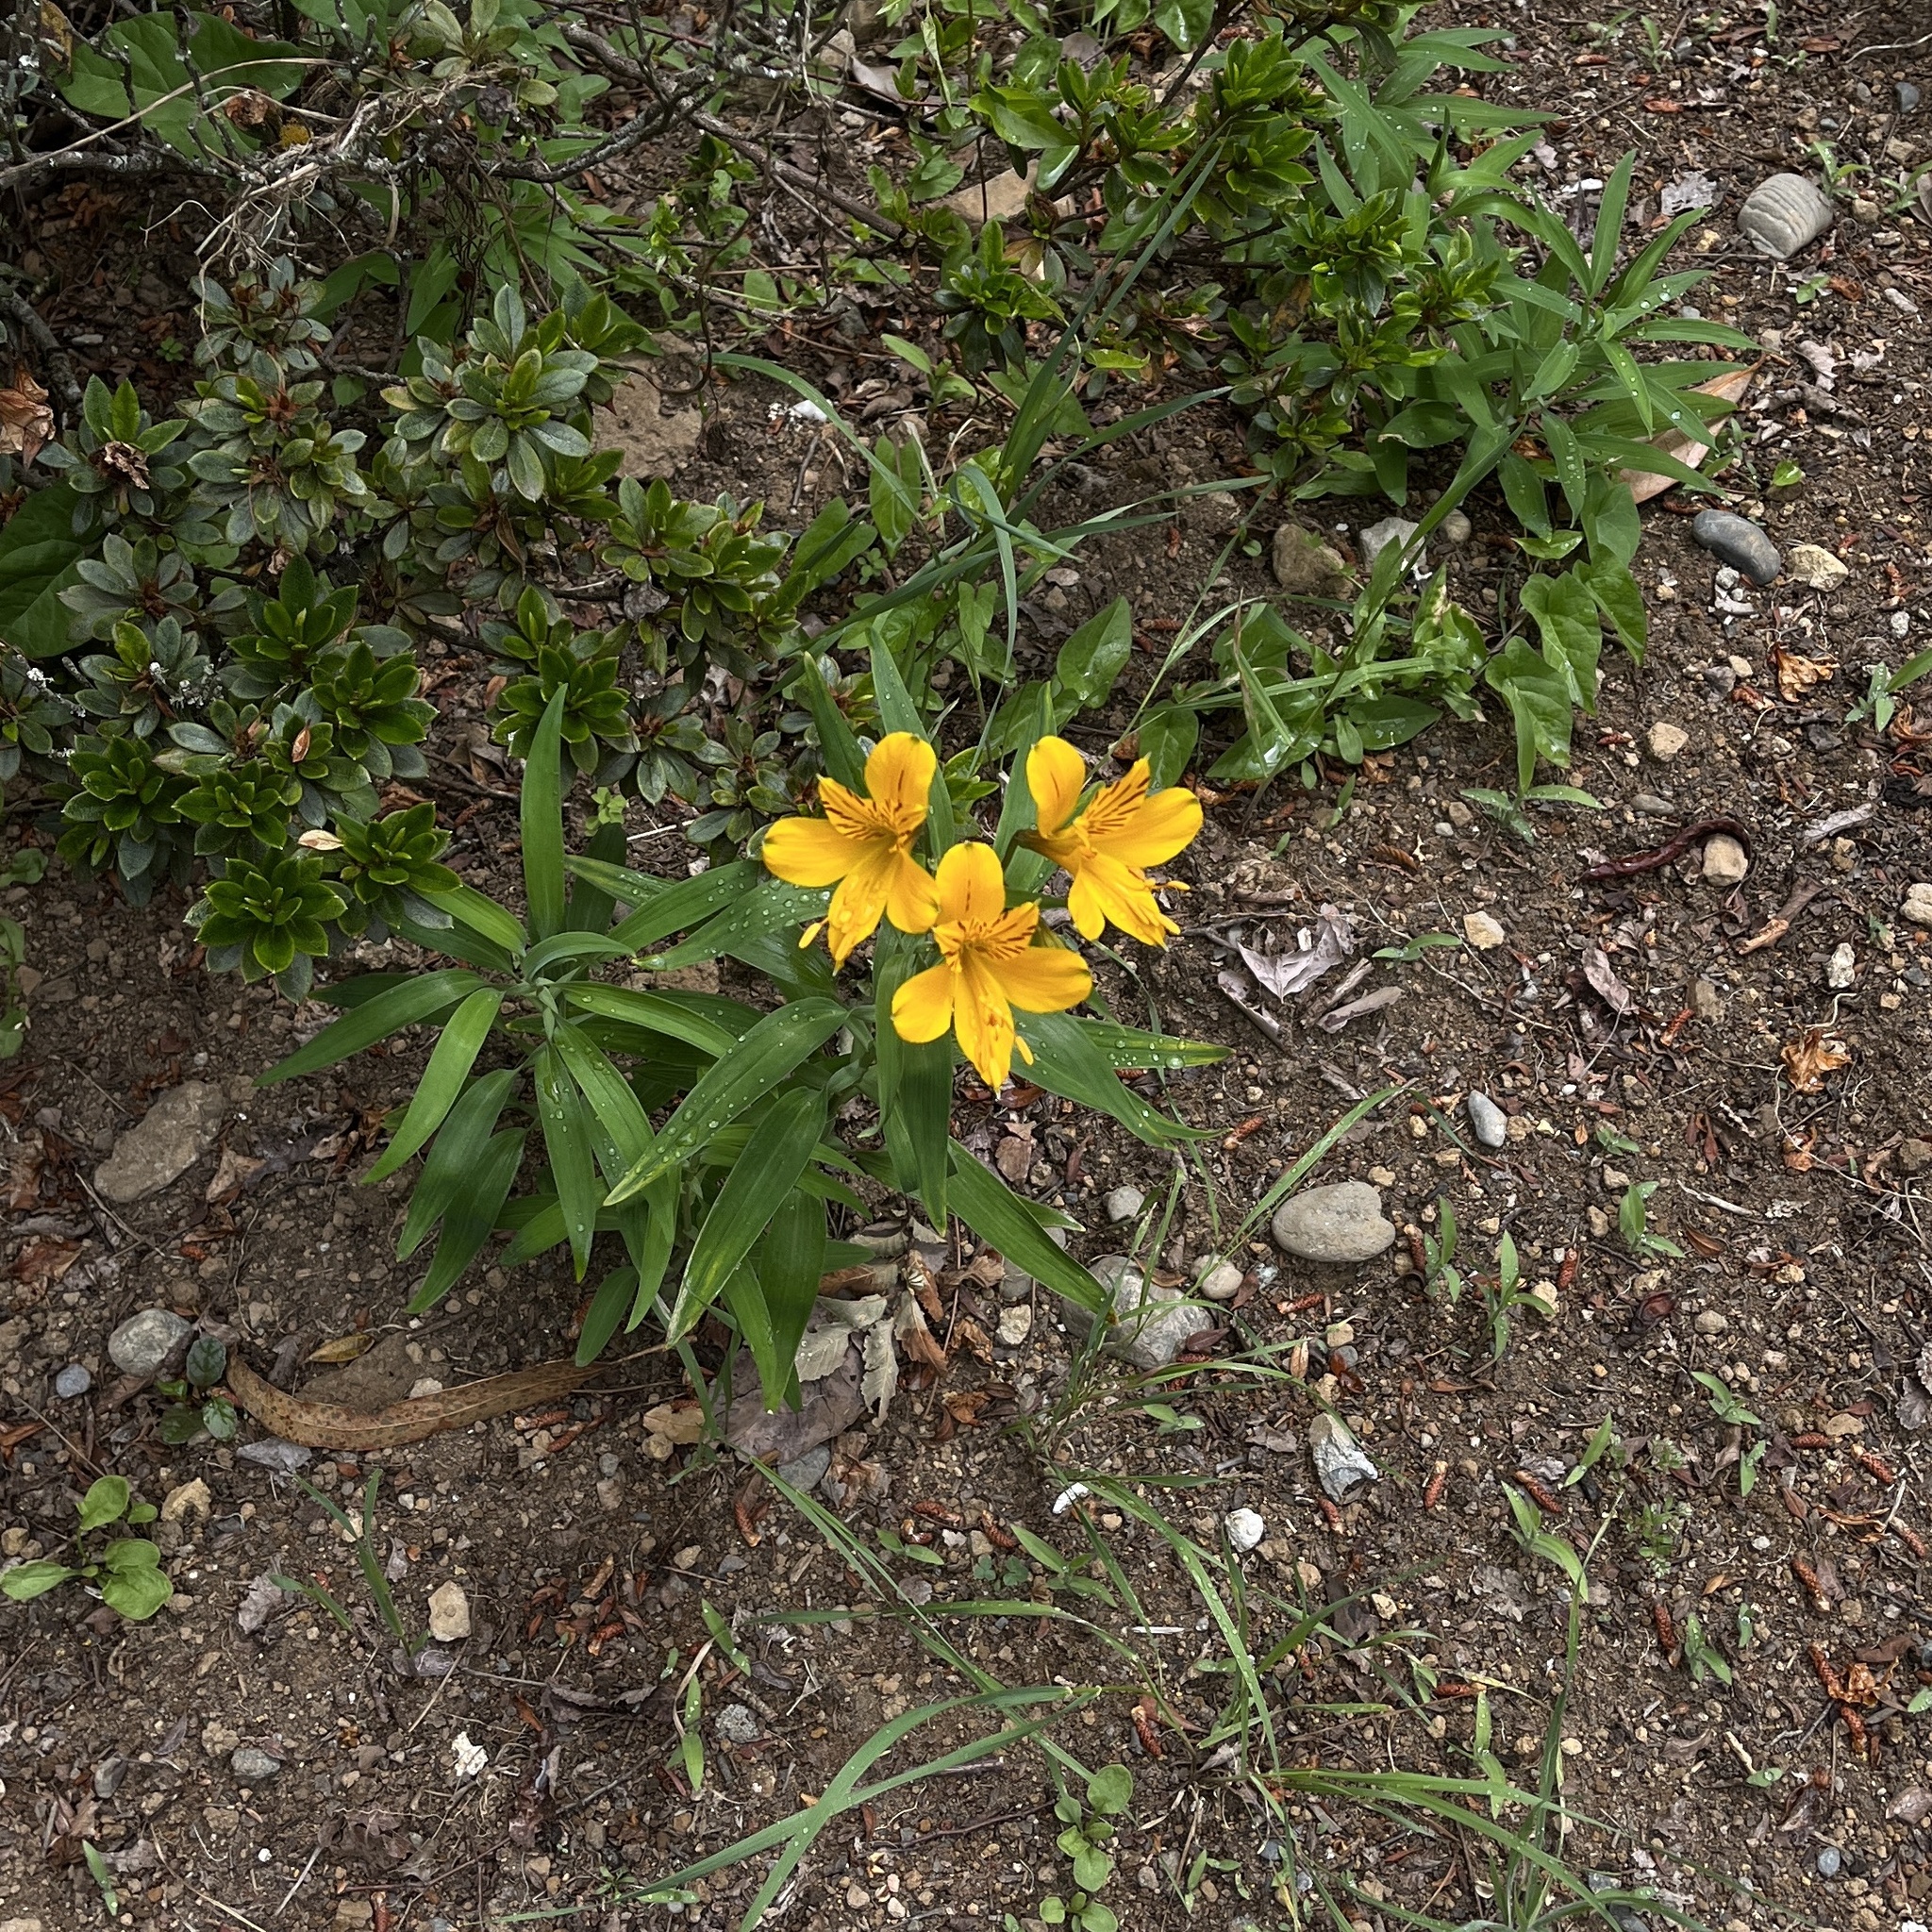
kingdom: Plantae
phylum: Tracheophyta
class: Liliopsida
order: Liliales
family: Alstroemeriaceae
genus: Alstroemeria
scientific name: Alstroemeria aurea
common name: Peruvian lily
